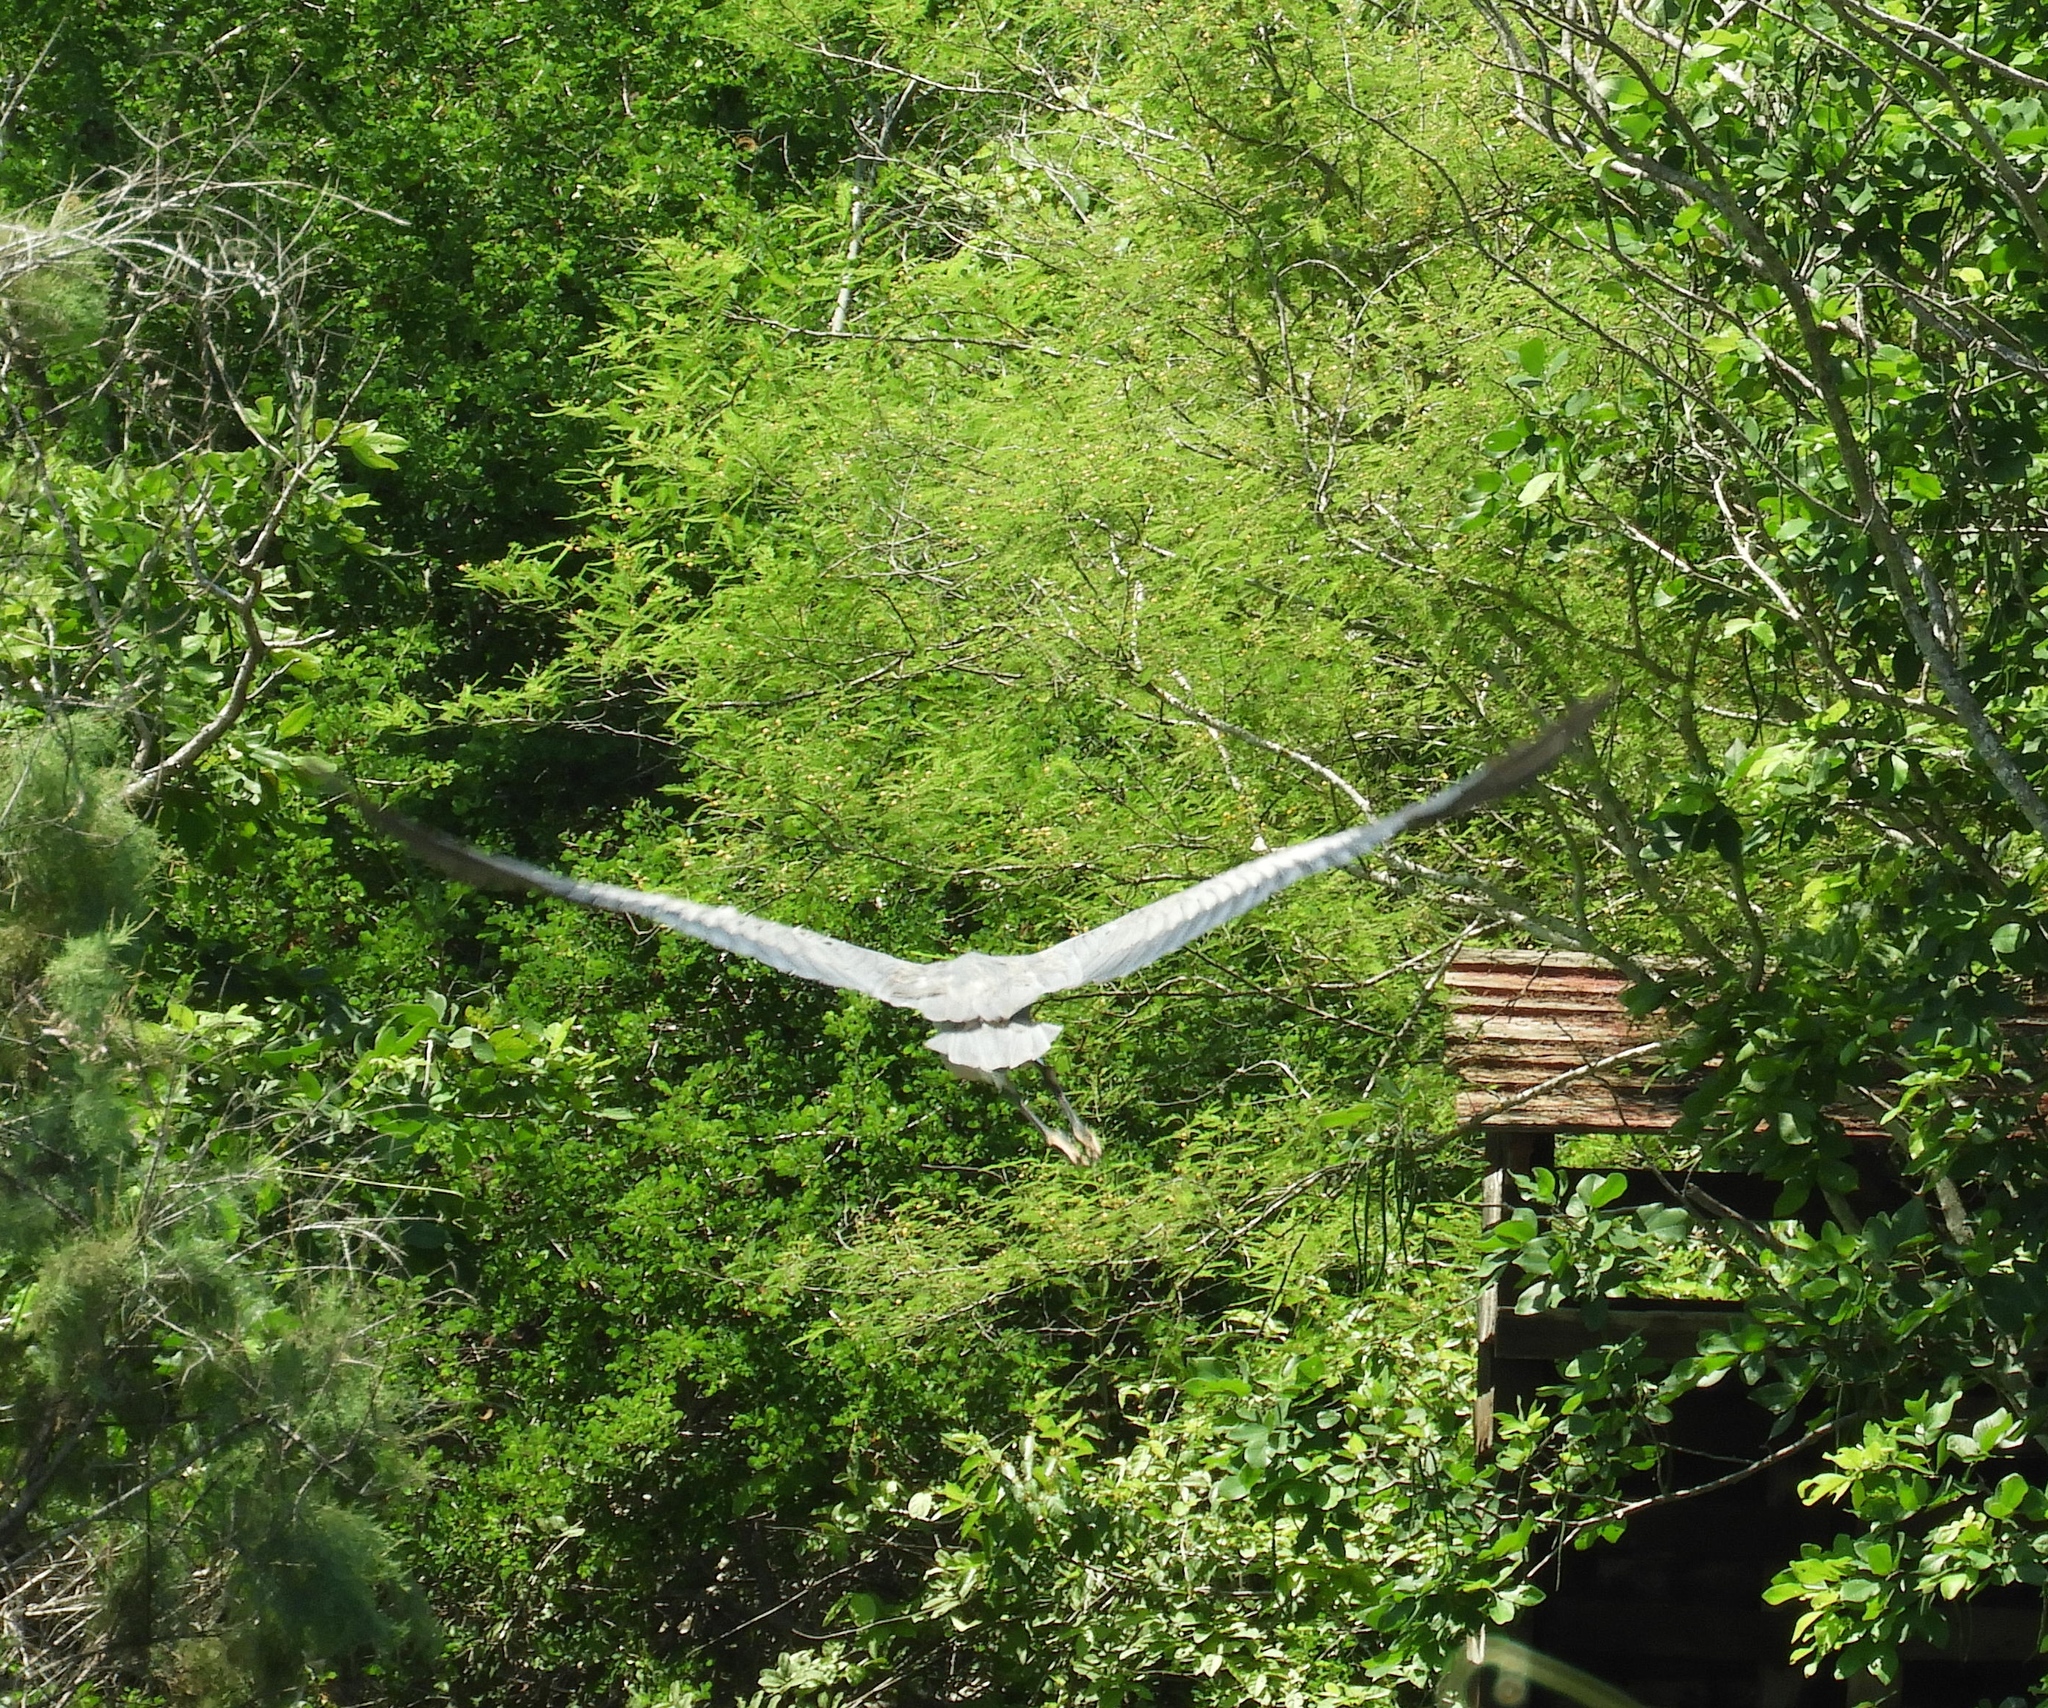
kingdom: Animalia
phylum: Chordata
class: Aves
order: Pelecaniformes
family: Ardeidae
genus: Ardea
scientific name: Ardea herodias
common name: Great blue heron
